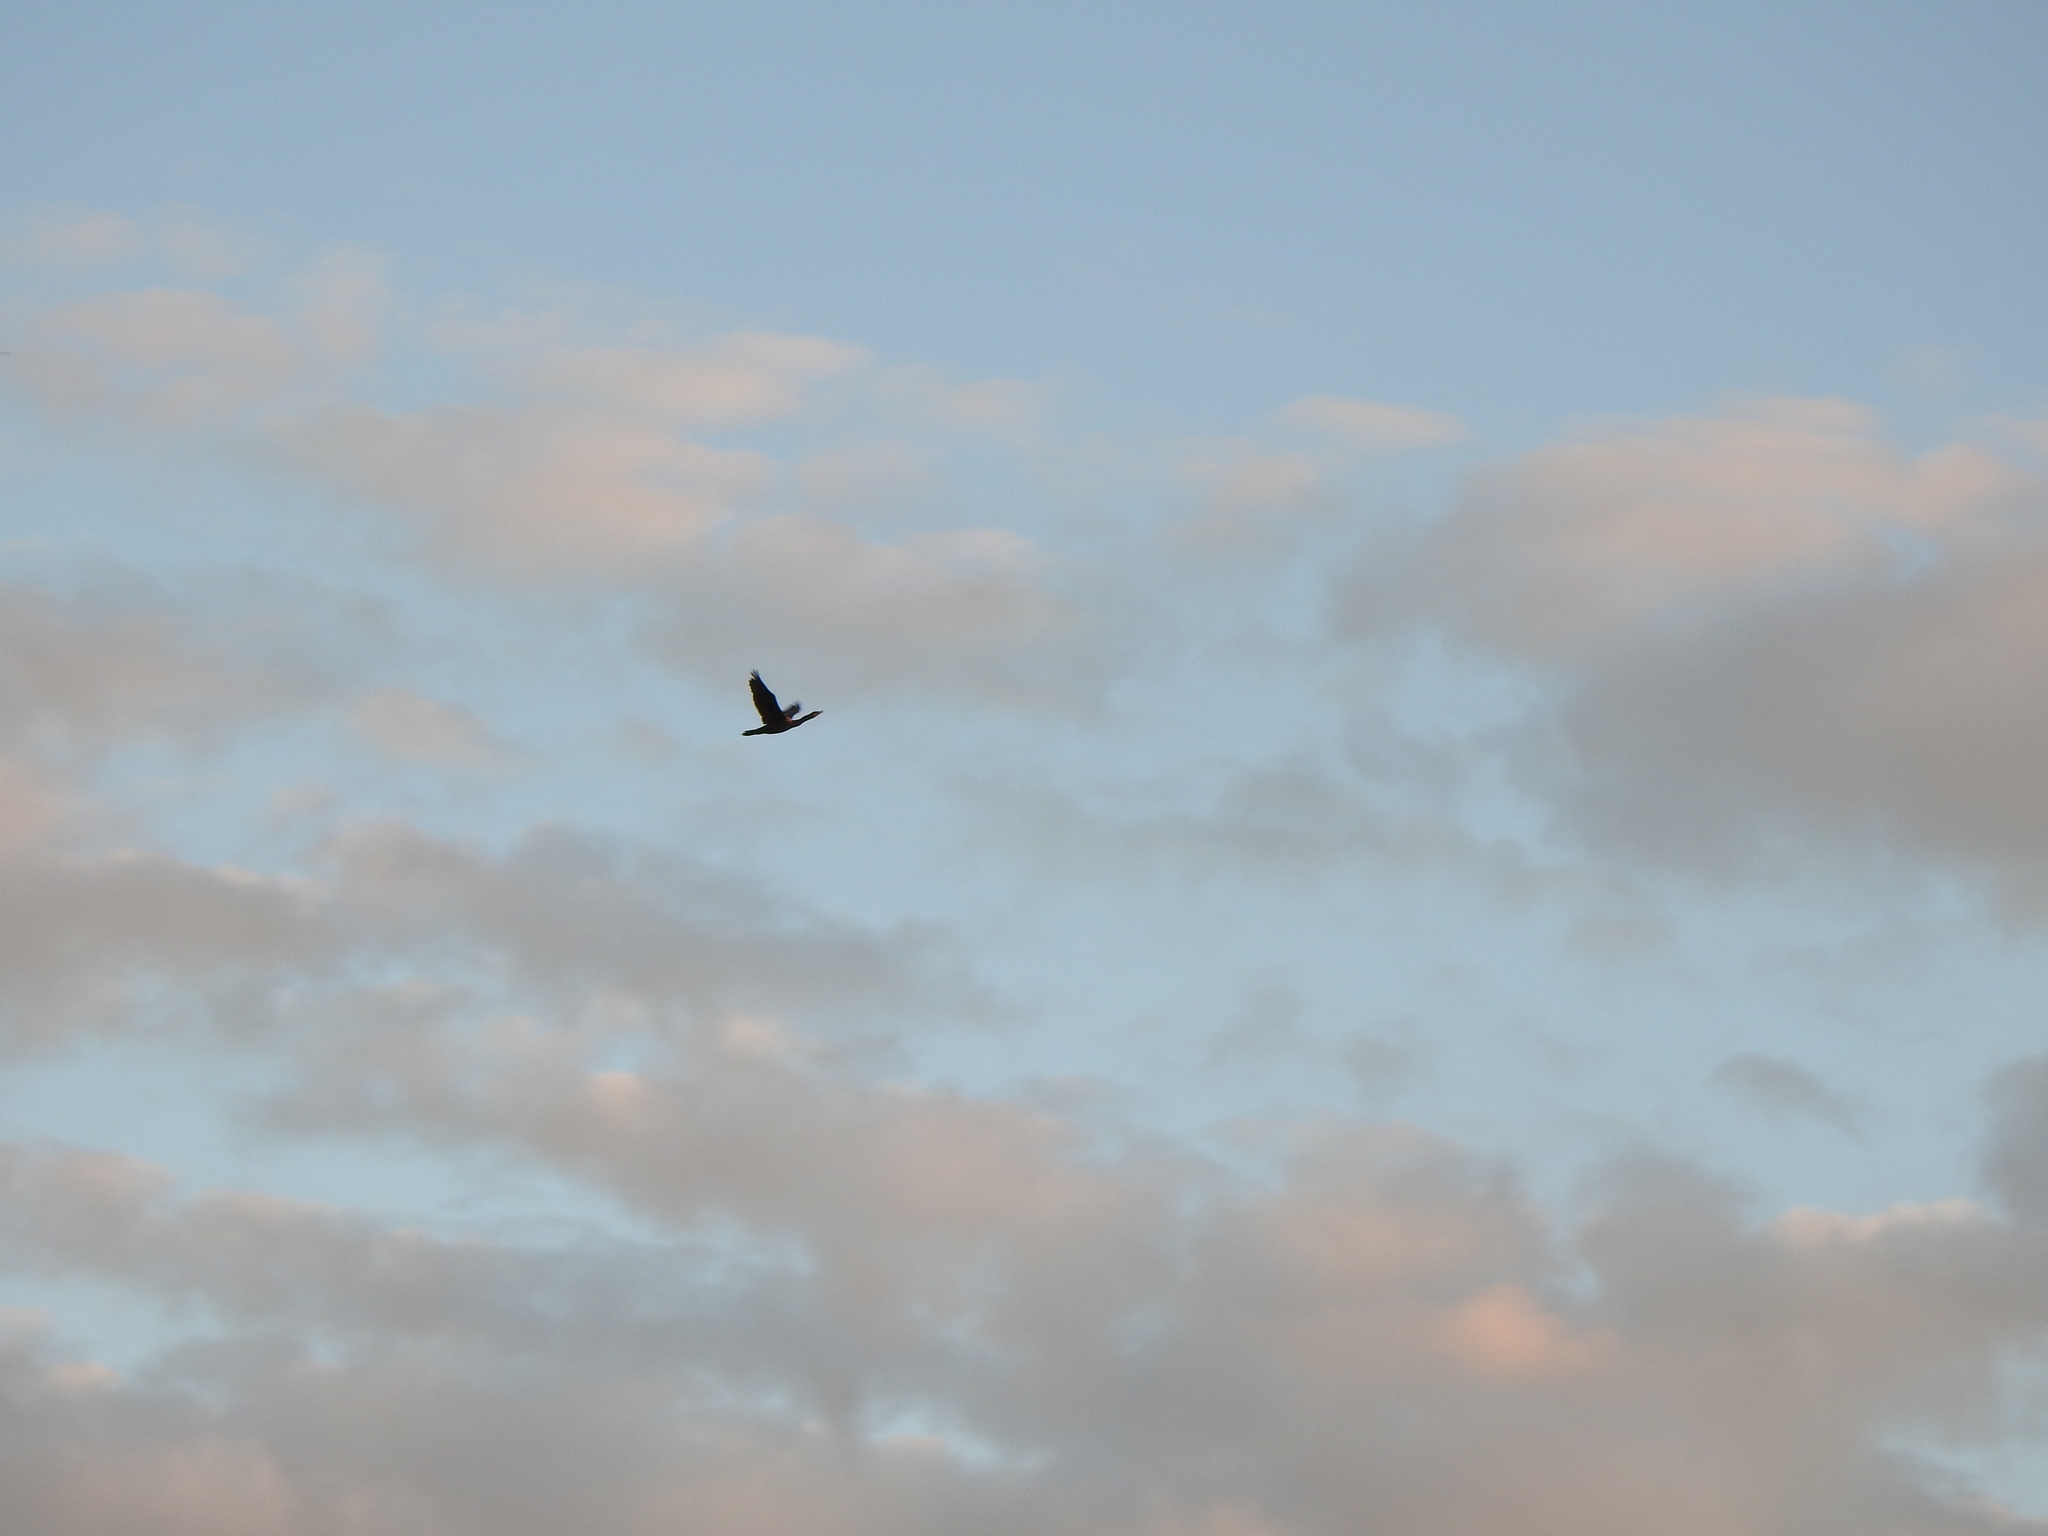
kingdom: Animalia
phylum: Chordata
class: Aves
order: Suliformes
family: Phalacrocoracidae
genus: Phalacrocorax
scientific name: Phalacrocorax auritus
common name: Double-crested cormorant
